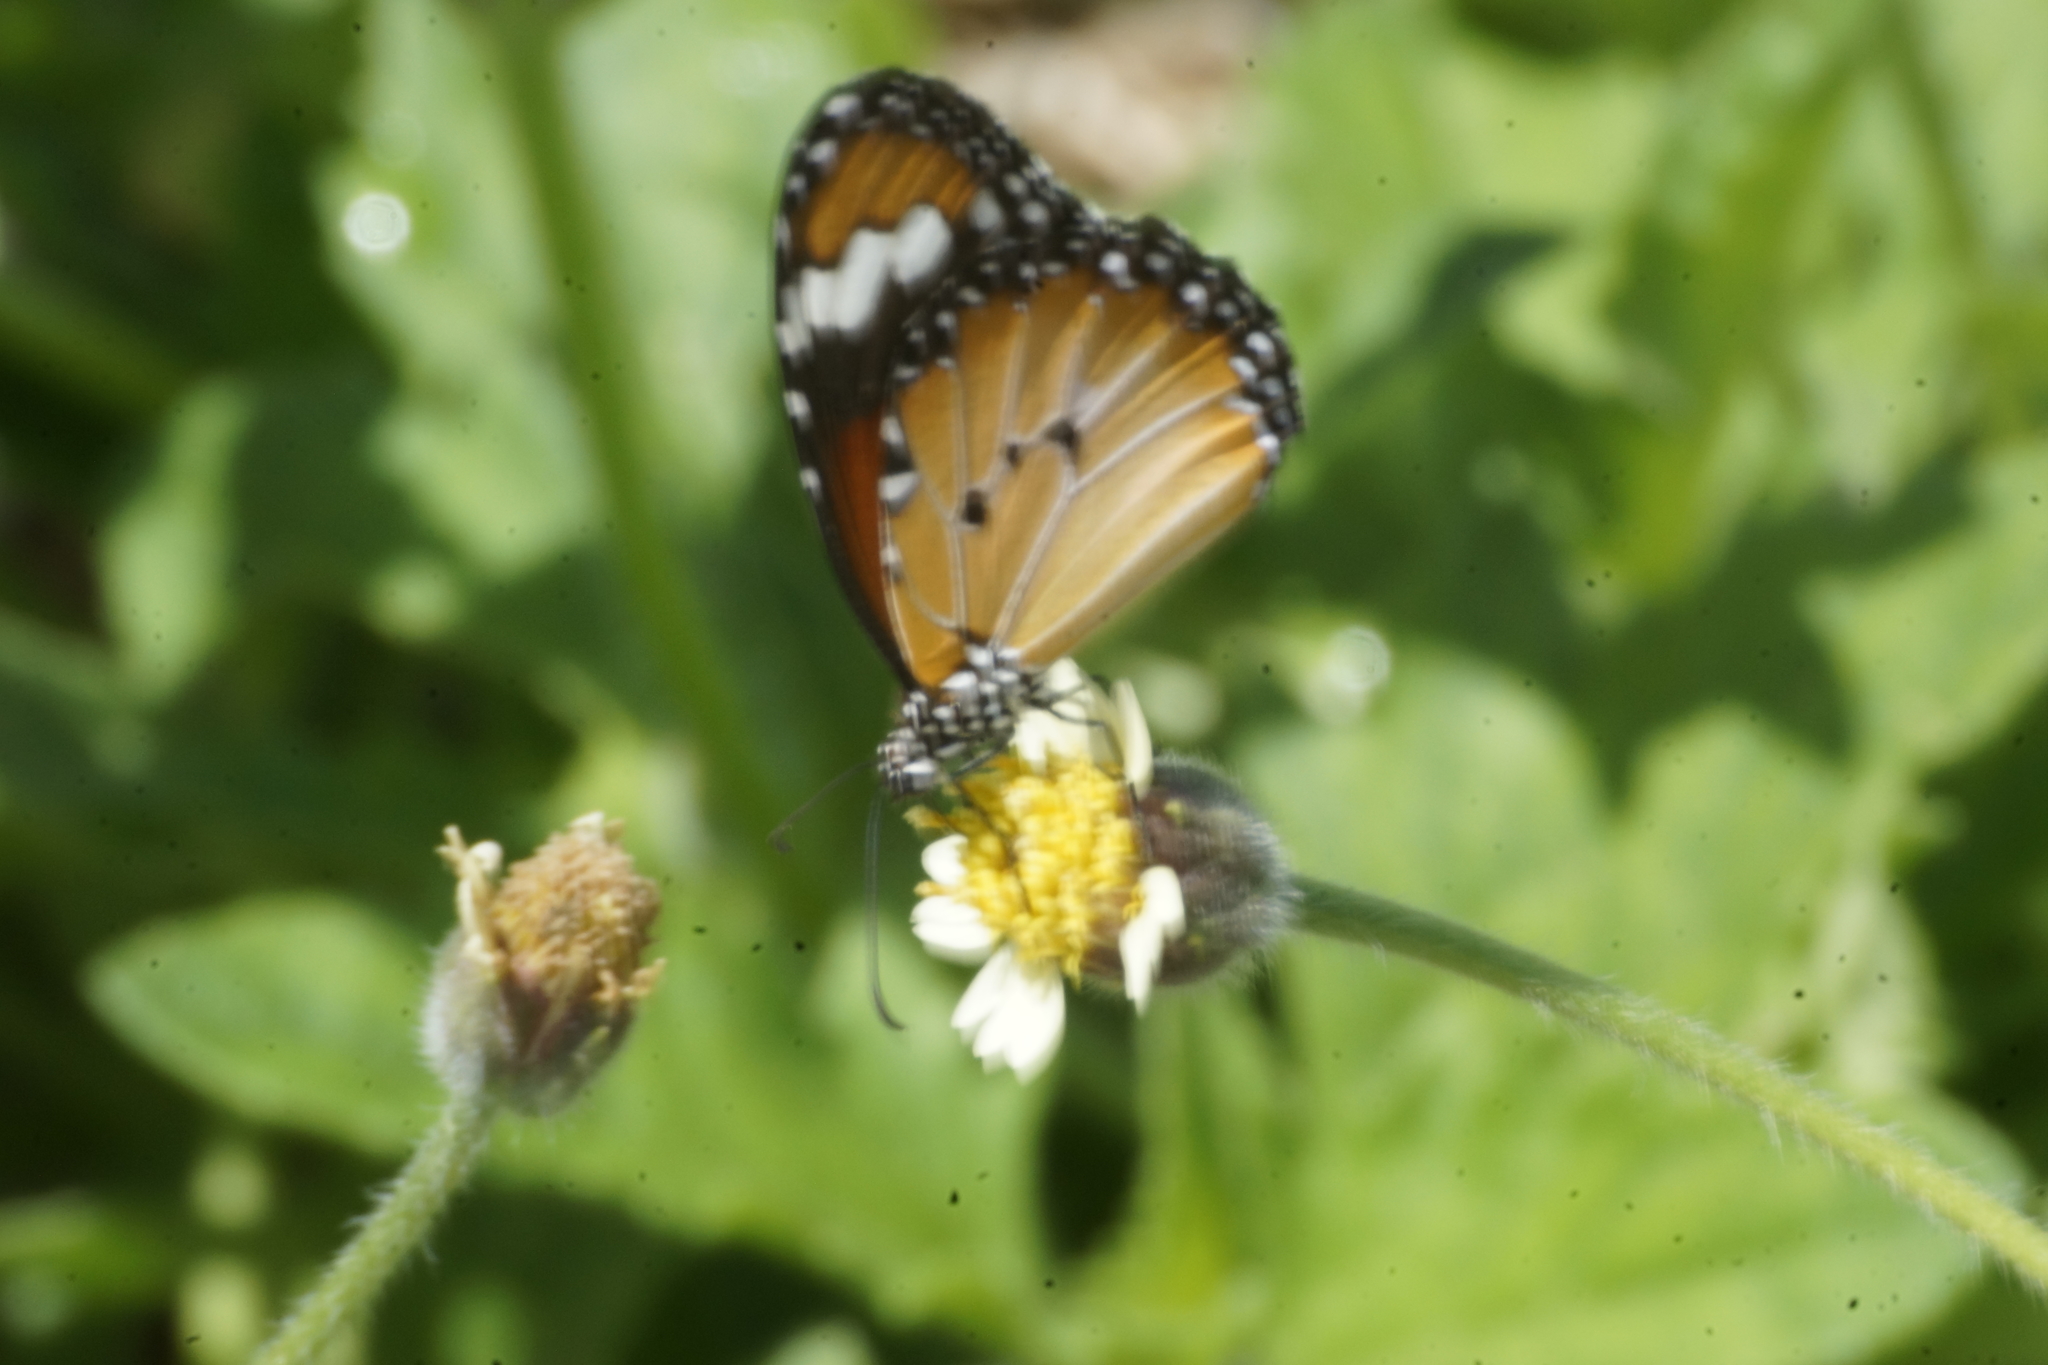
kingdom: Animalia
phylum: Arthropoda
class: Insecta
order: Lepidoptera
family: Nymphalidae
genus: Danaus
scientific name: Danaus chrysippus
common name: Plain tiger
